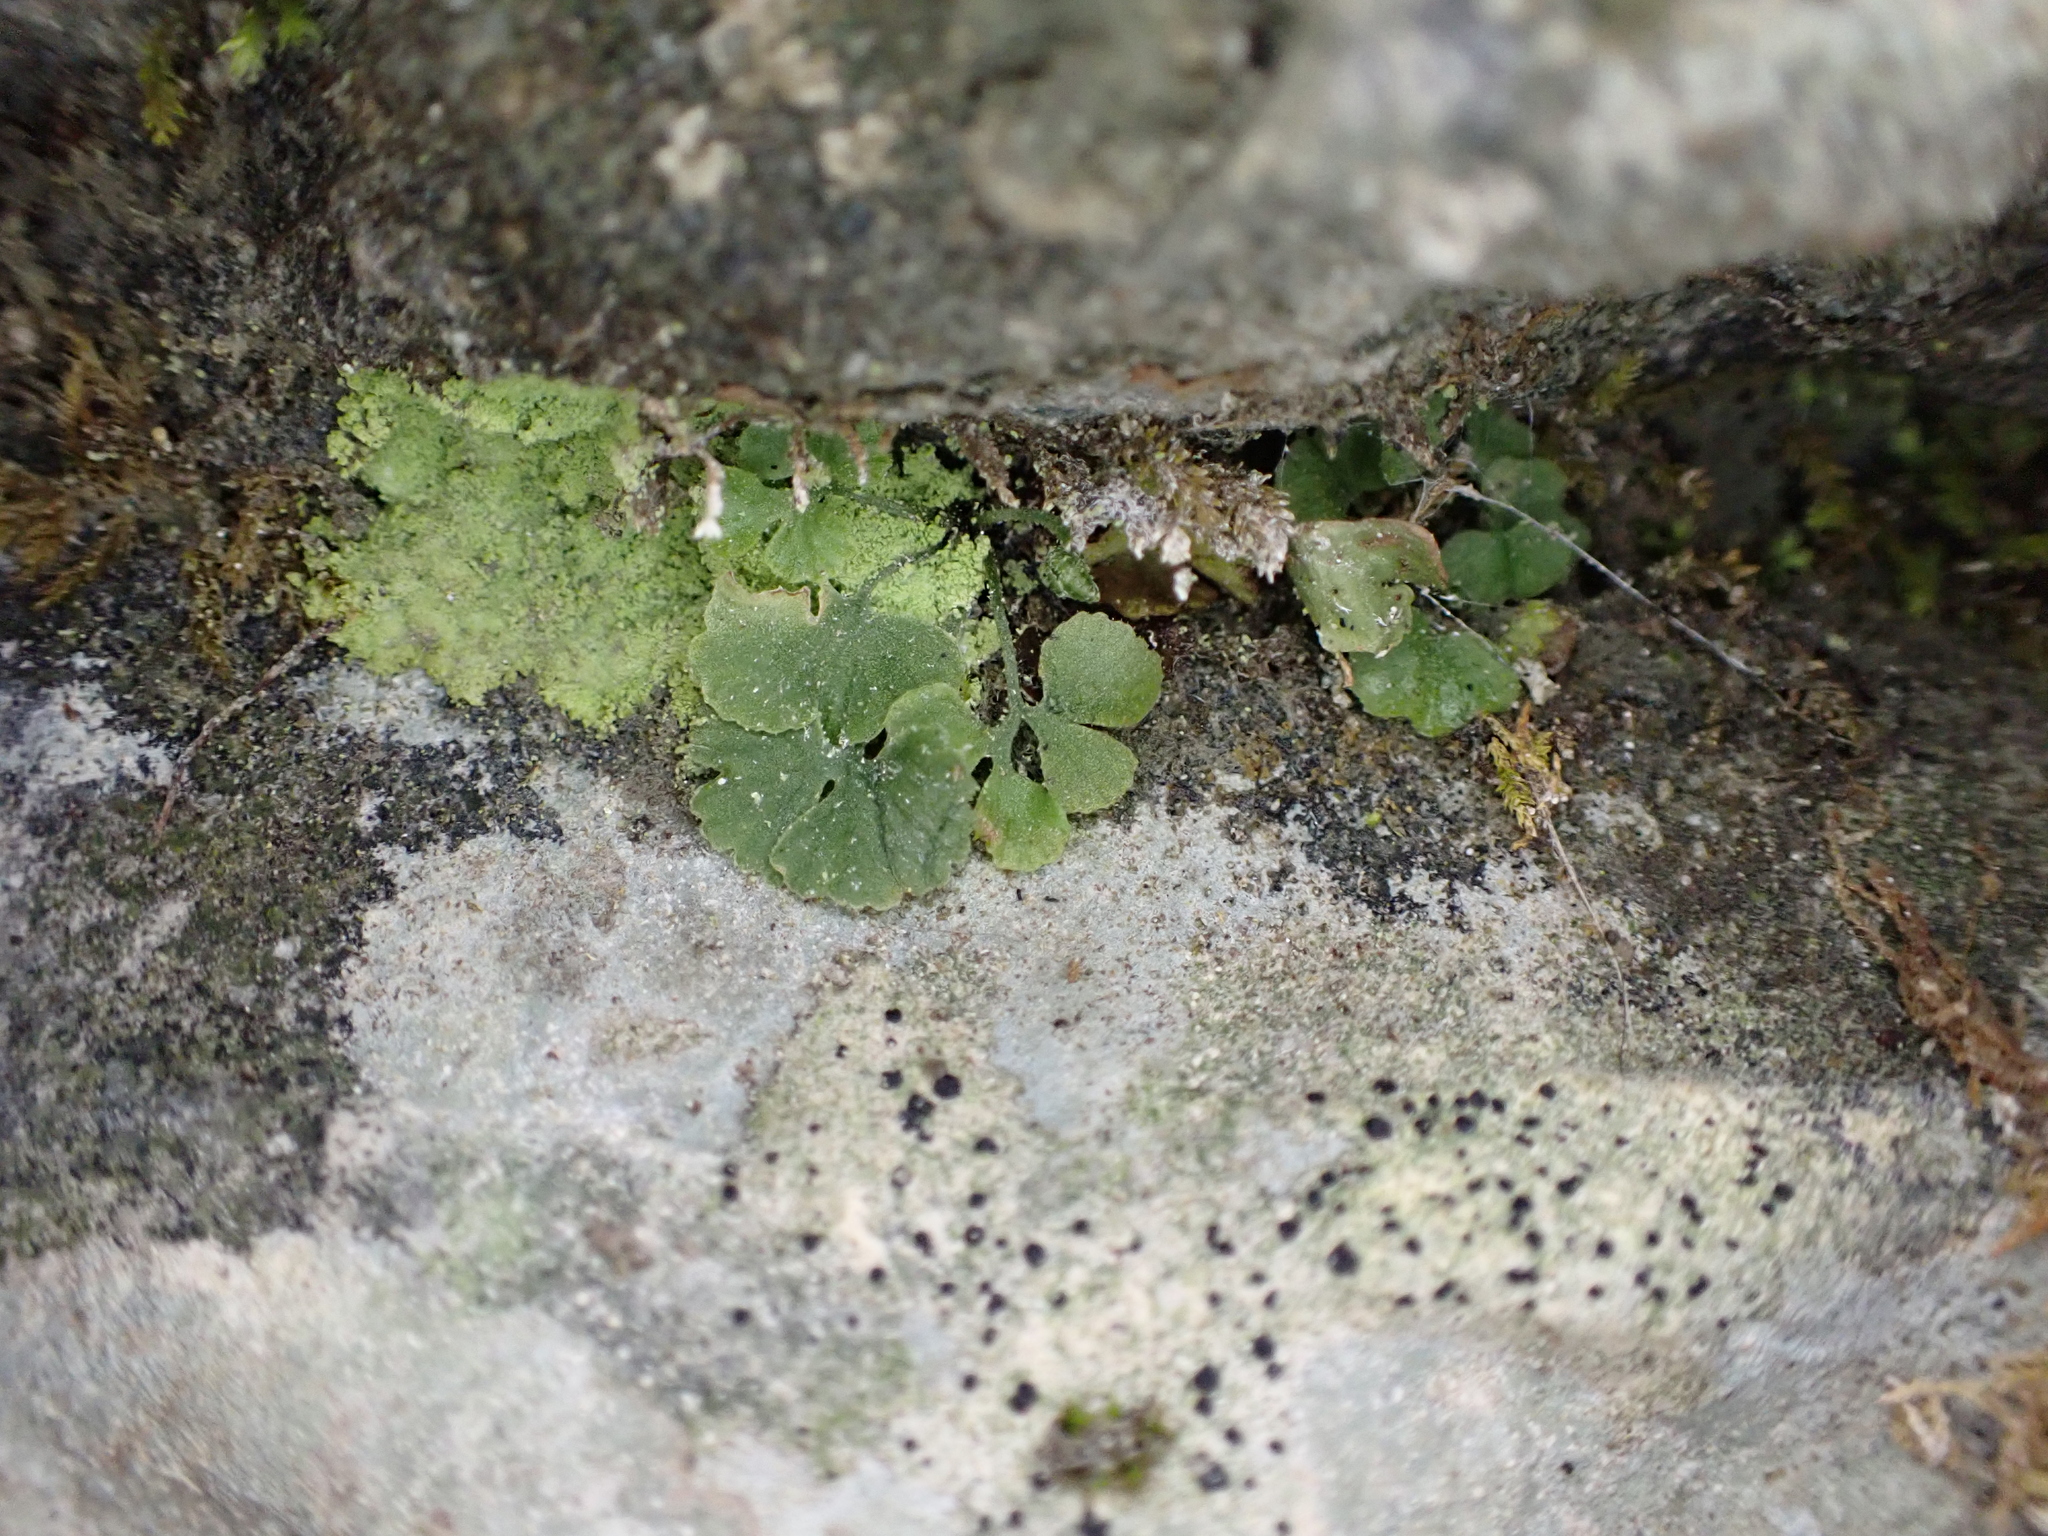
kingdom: Plantae
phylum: Tracheophyta
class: Polypodiopsida
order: Polypodiales
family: Aspleniaceae
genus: Asplenium
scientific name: Asplenium ruta-muraria
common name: Wall-rue
